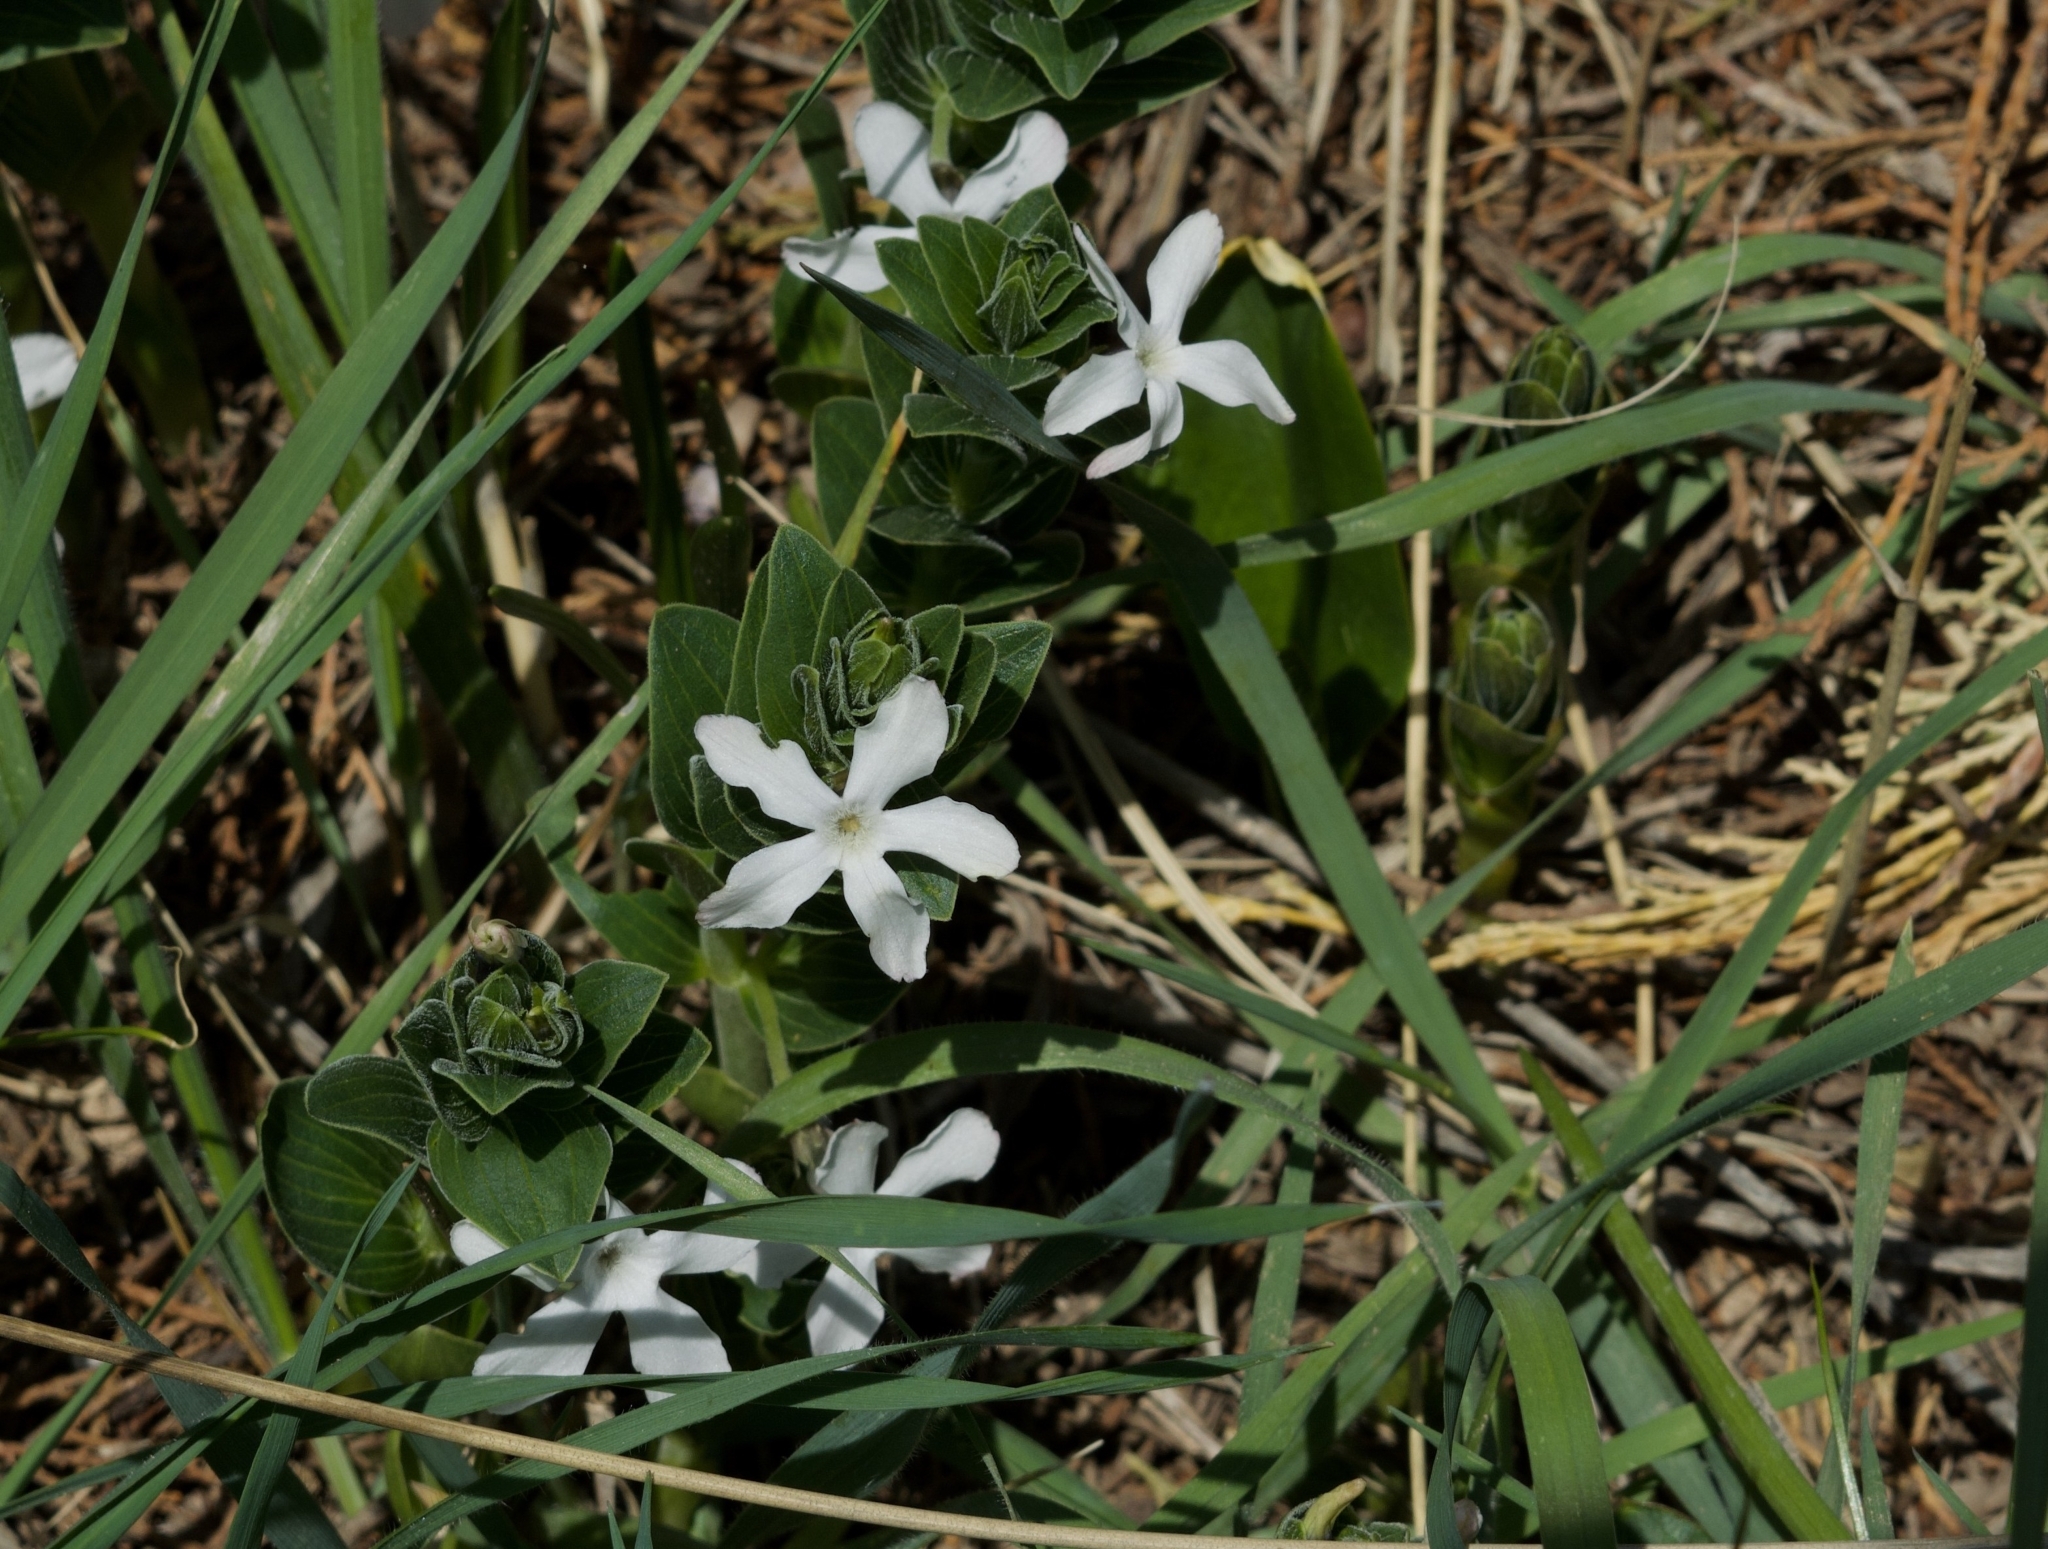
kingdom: Plantae
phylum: Tracheophyta
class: Magnoliopsida
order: Gentianales
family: Apocynaceae
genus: Vinca
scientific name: Vinca erecta
